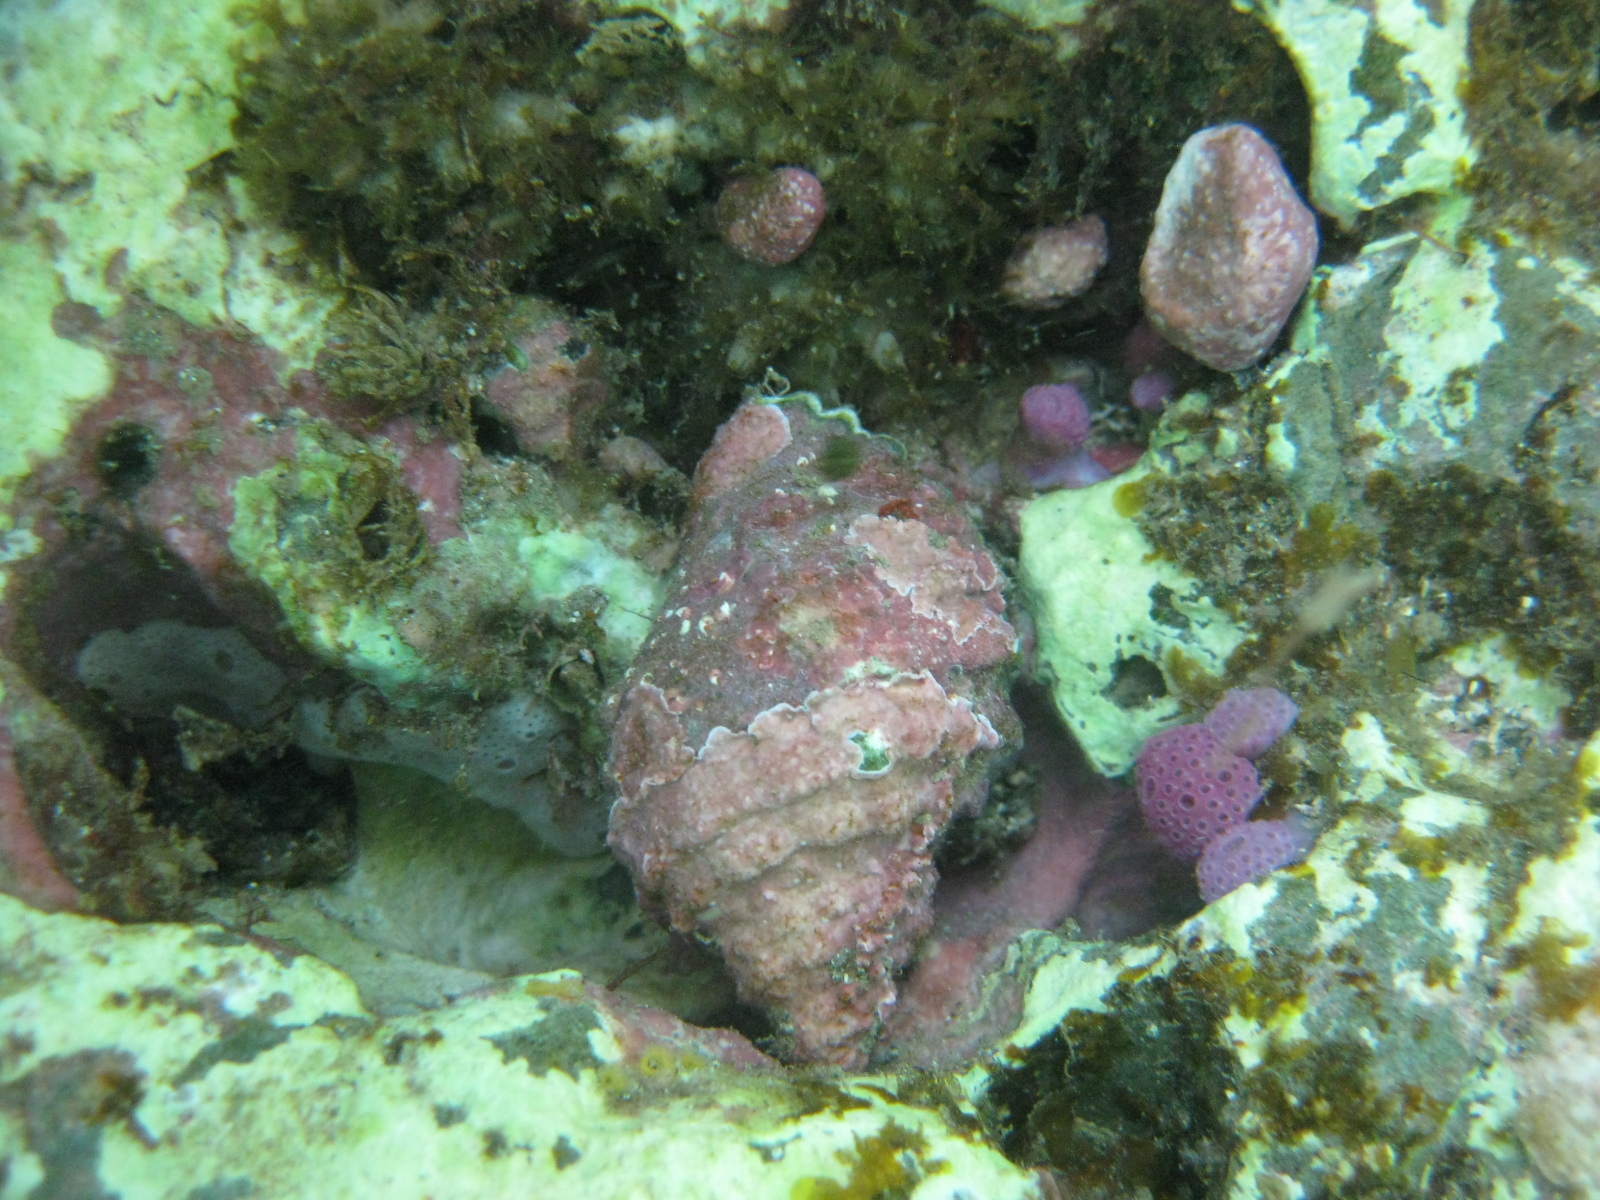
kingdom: Animalia
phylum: Mollusca
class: Gastropoda
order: Neogastropoda
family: Muricidae
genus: Dicathais
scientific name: Dicathais orbita
